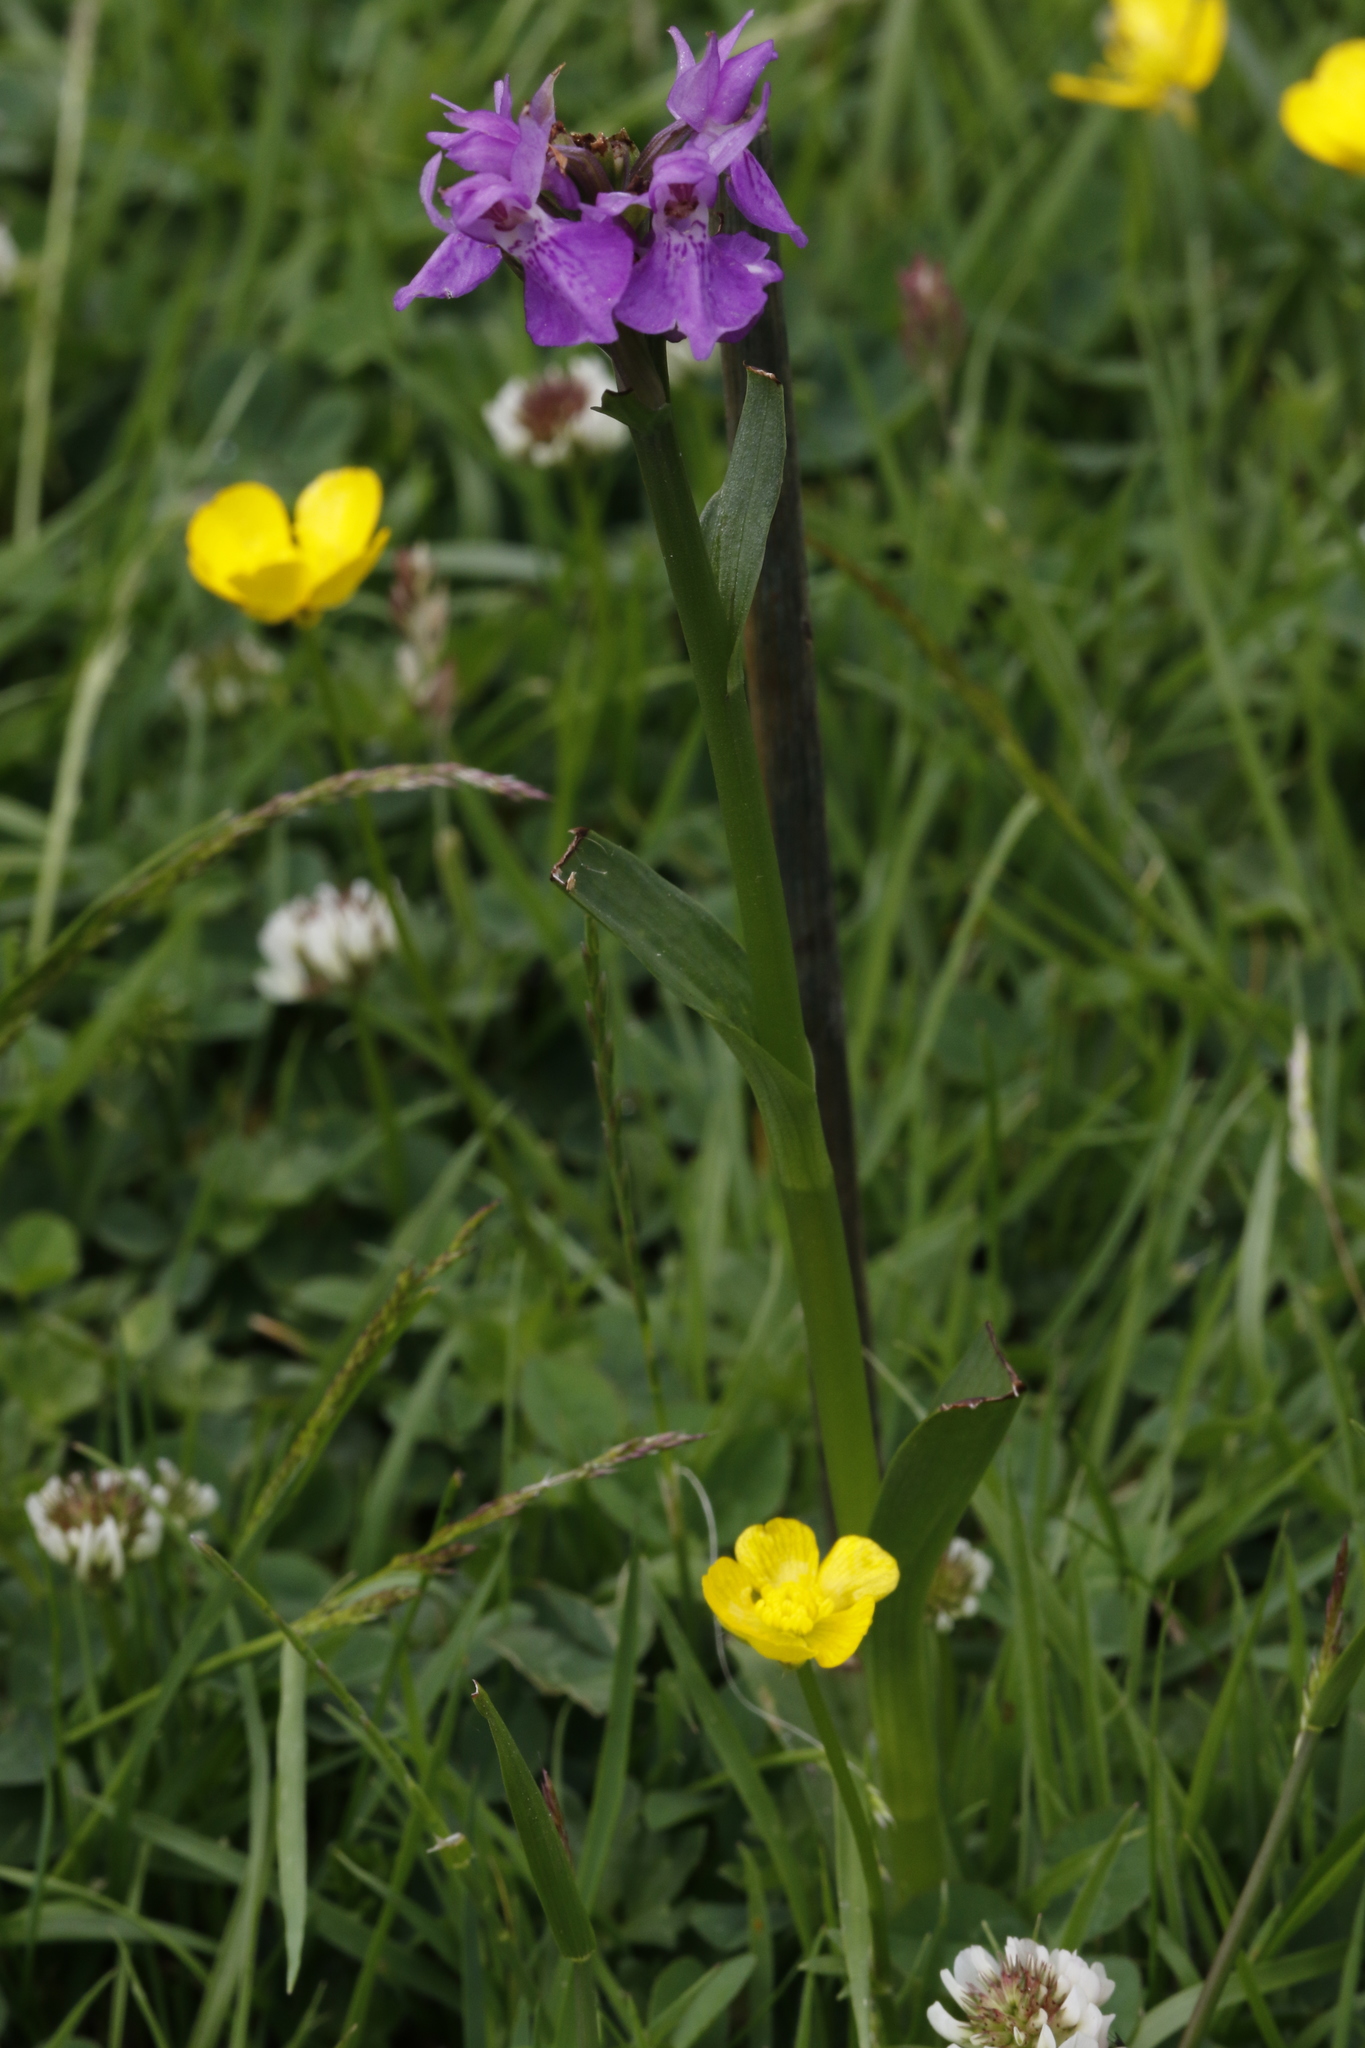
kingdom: Plantae
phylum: Tracheophyta
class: Liliopsida
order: Asparagales
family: Orchidaceae
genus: Dactylorhiza
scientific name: Dactylorhiza majalis
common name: Marsh orchid
